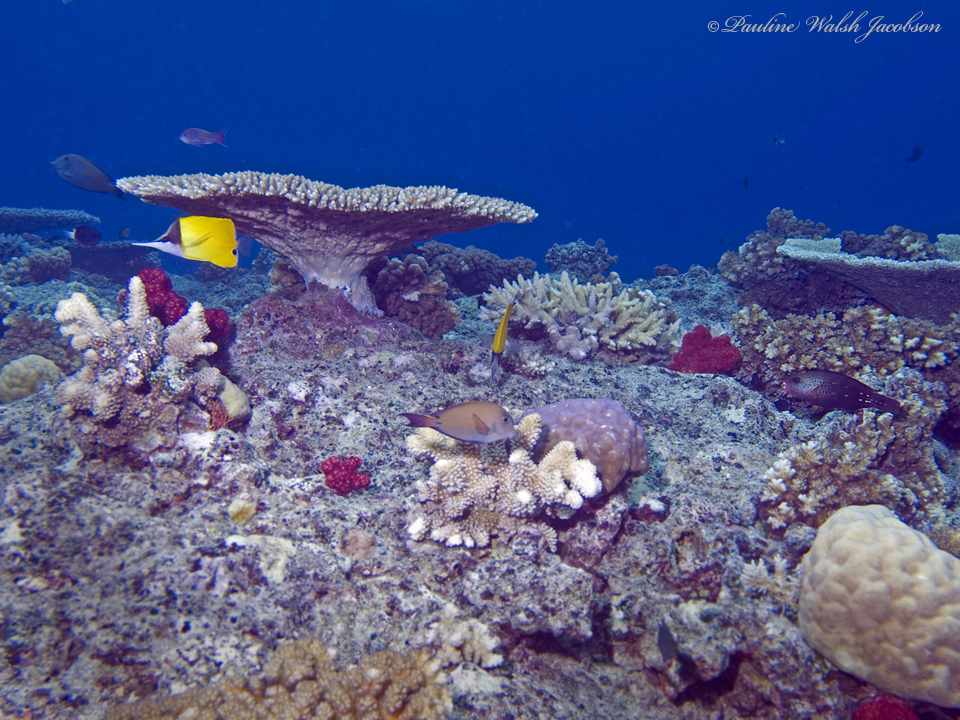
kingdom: Animalia
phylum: Chordata
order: Perciformes
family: Chaetodontidae
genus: Forcipiger
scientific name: Forcipiger flavissimus
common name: Forcepsfish
